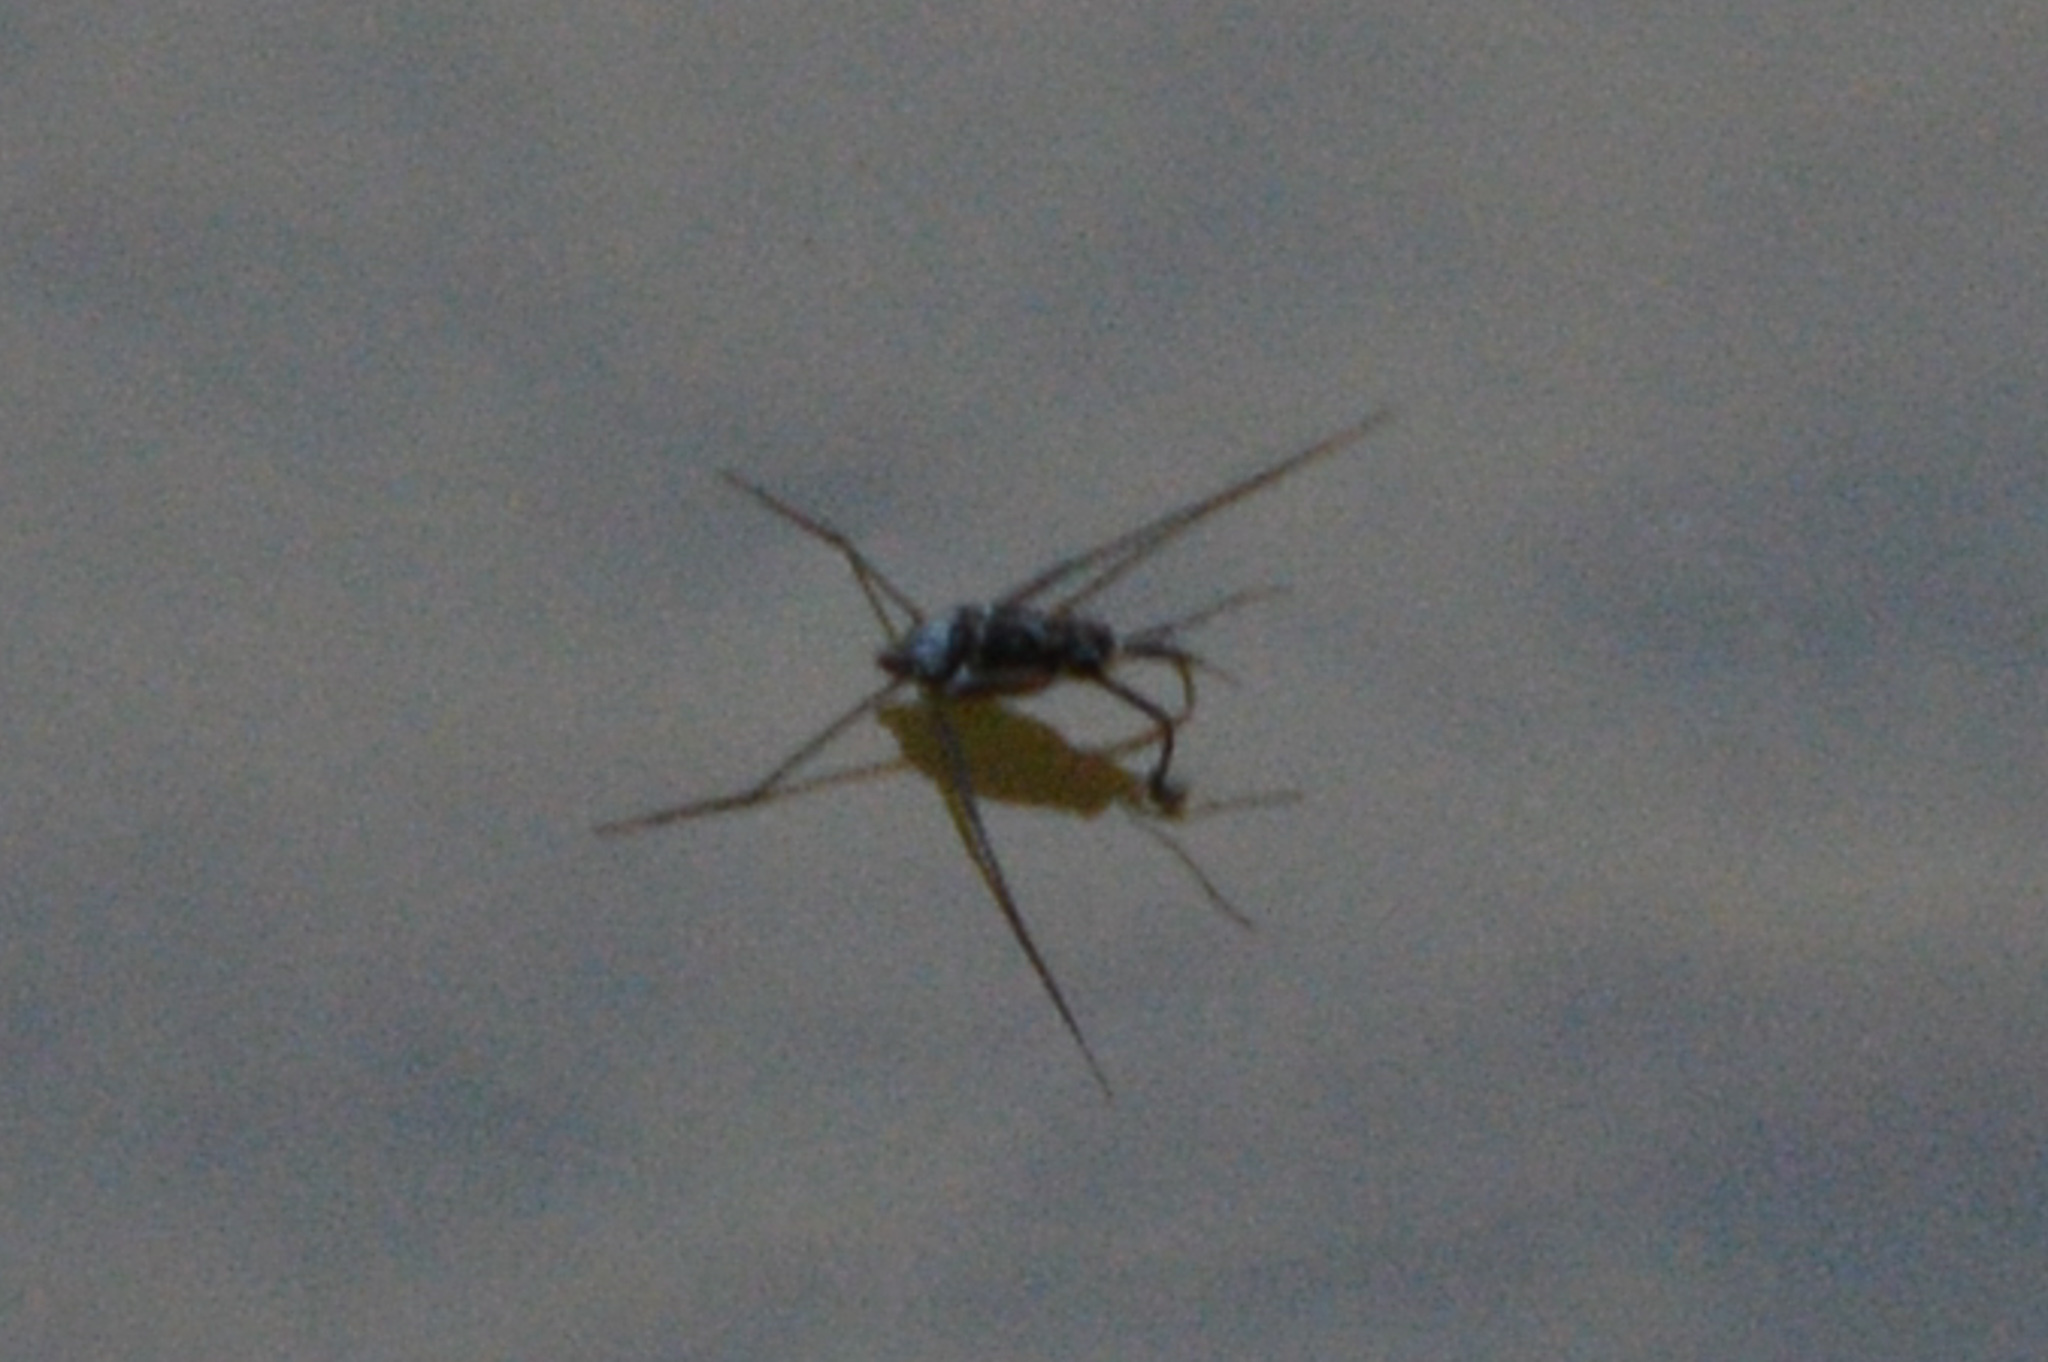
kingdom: Animalia
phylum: Arthropoda
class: Insecta
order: Hemiptera
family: Gerridae
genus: Trepobates
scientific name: Trepobates
